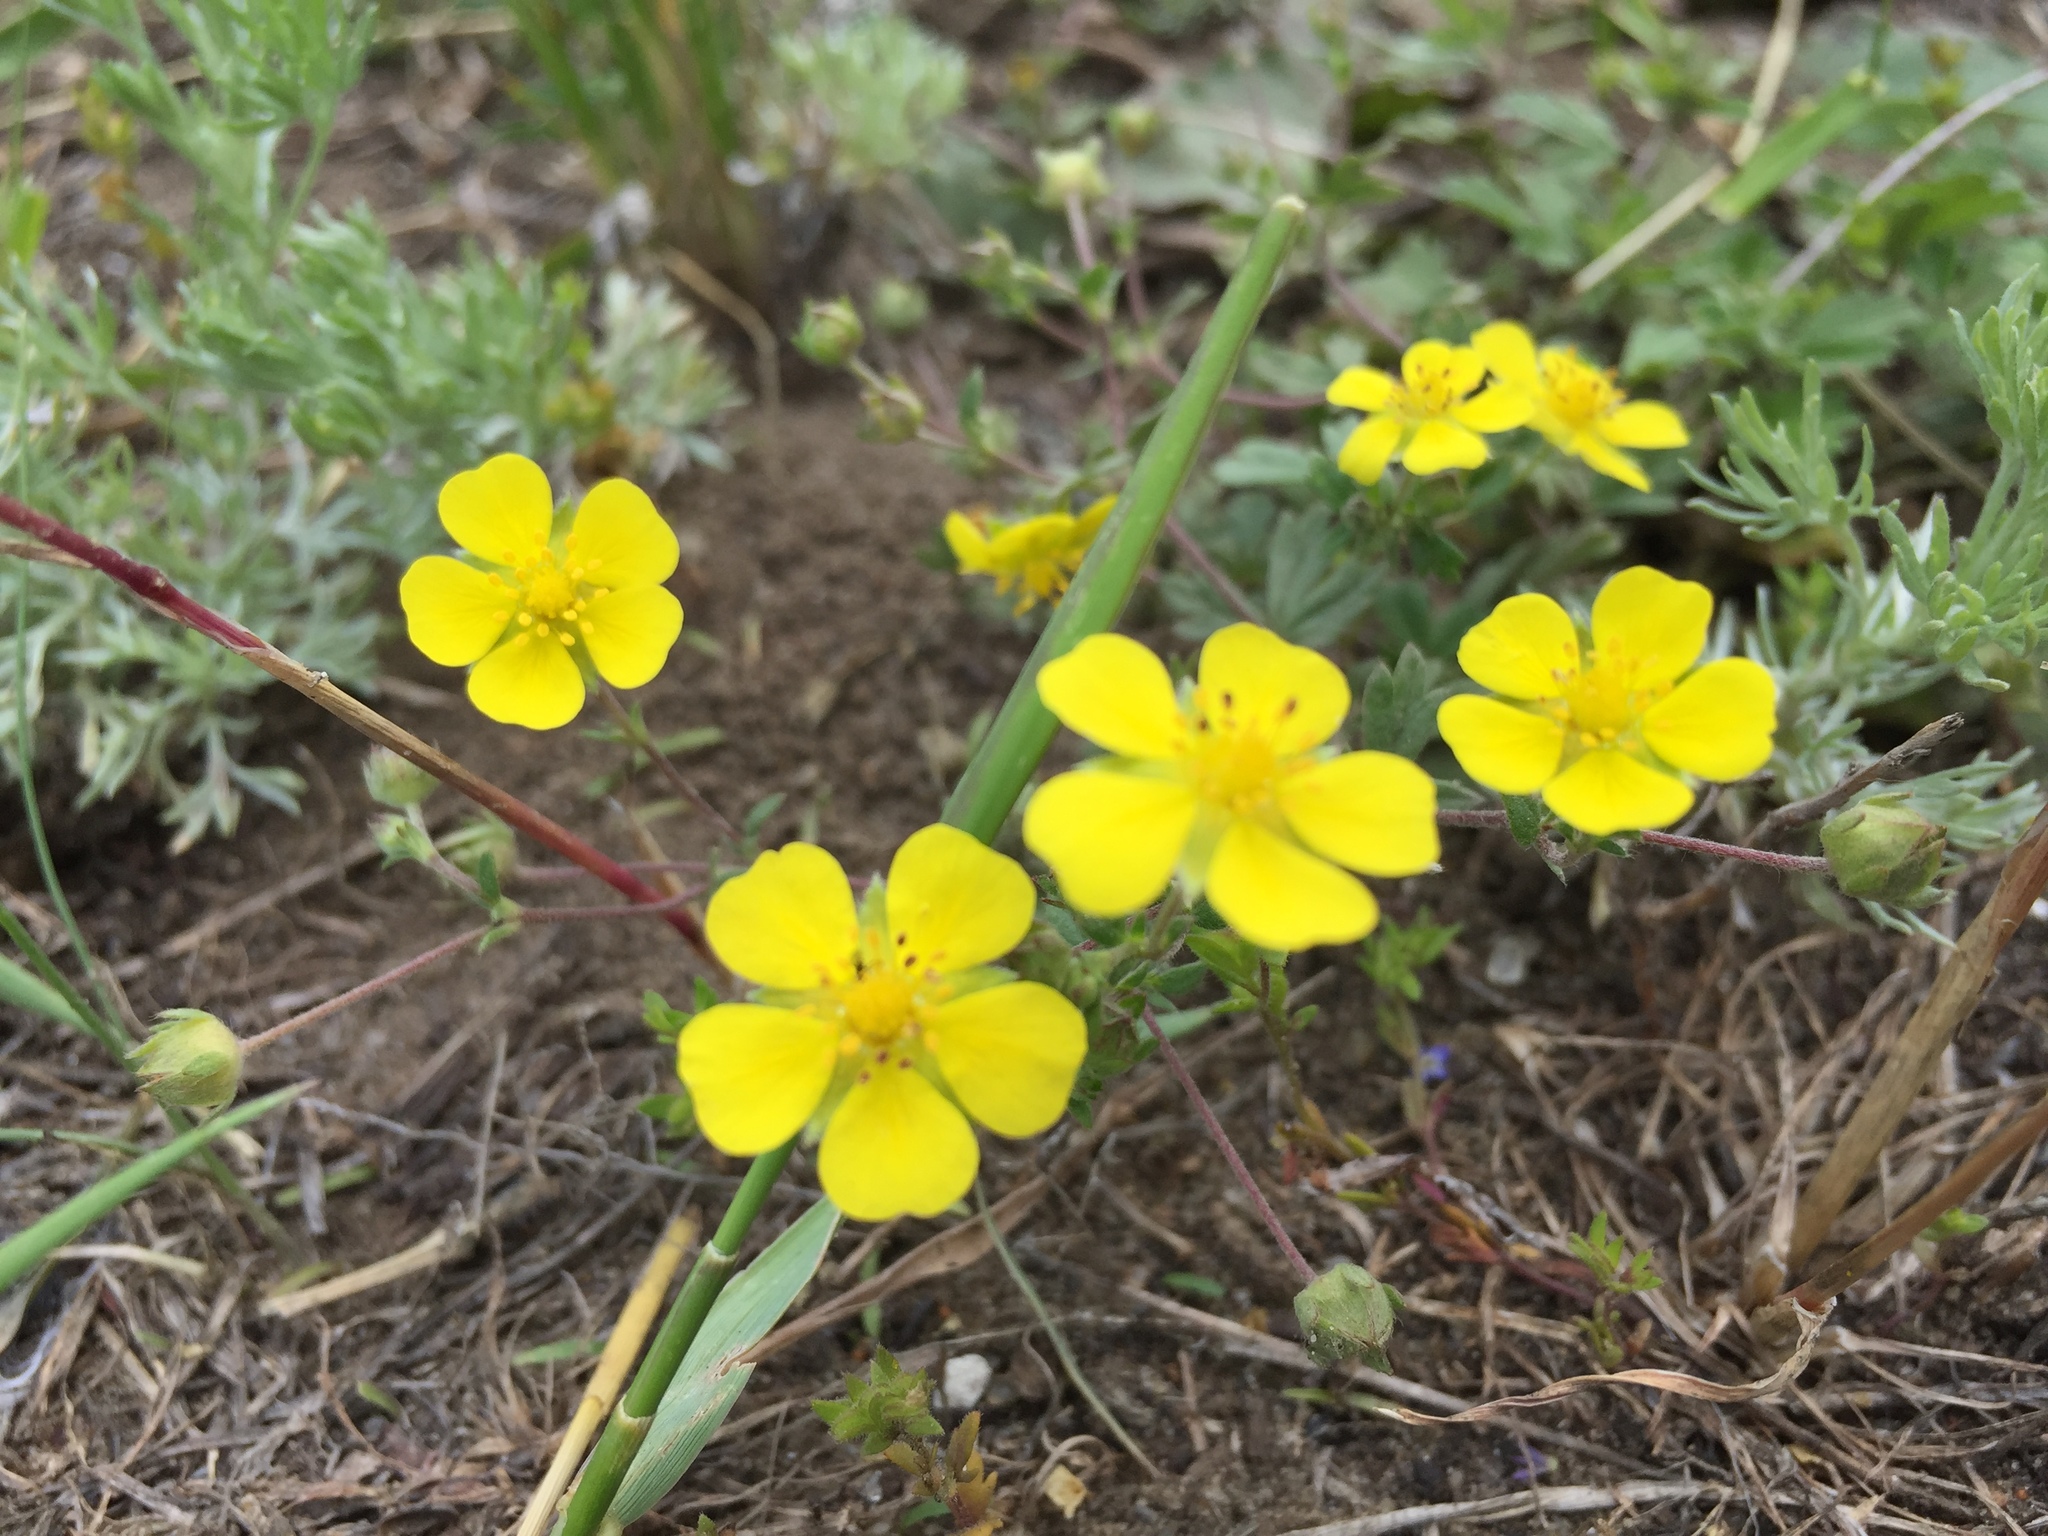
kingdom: Plantae
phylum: Tracheophyta
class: Magnoliopsida
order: Rosales
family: Rosaceae
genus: Potentilla
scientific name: Potentilla argentea
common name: Hoary cinquefoil
